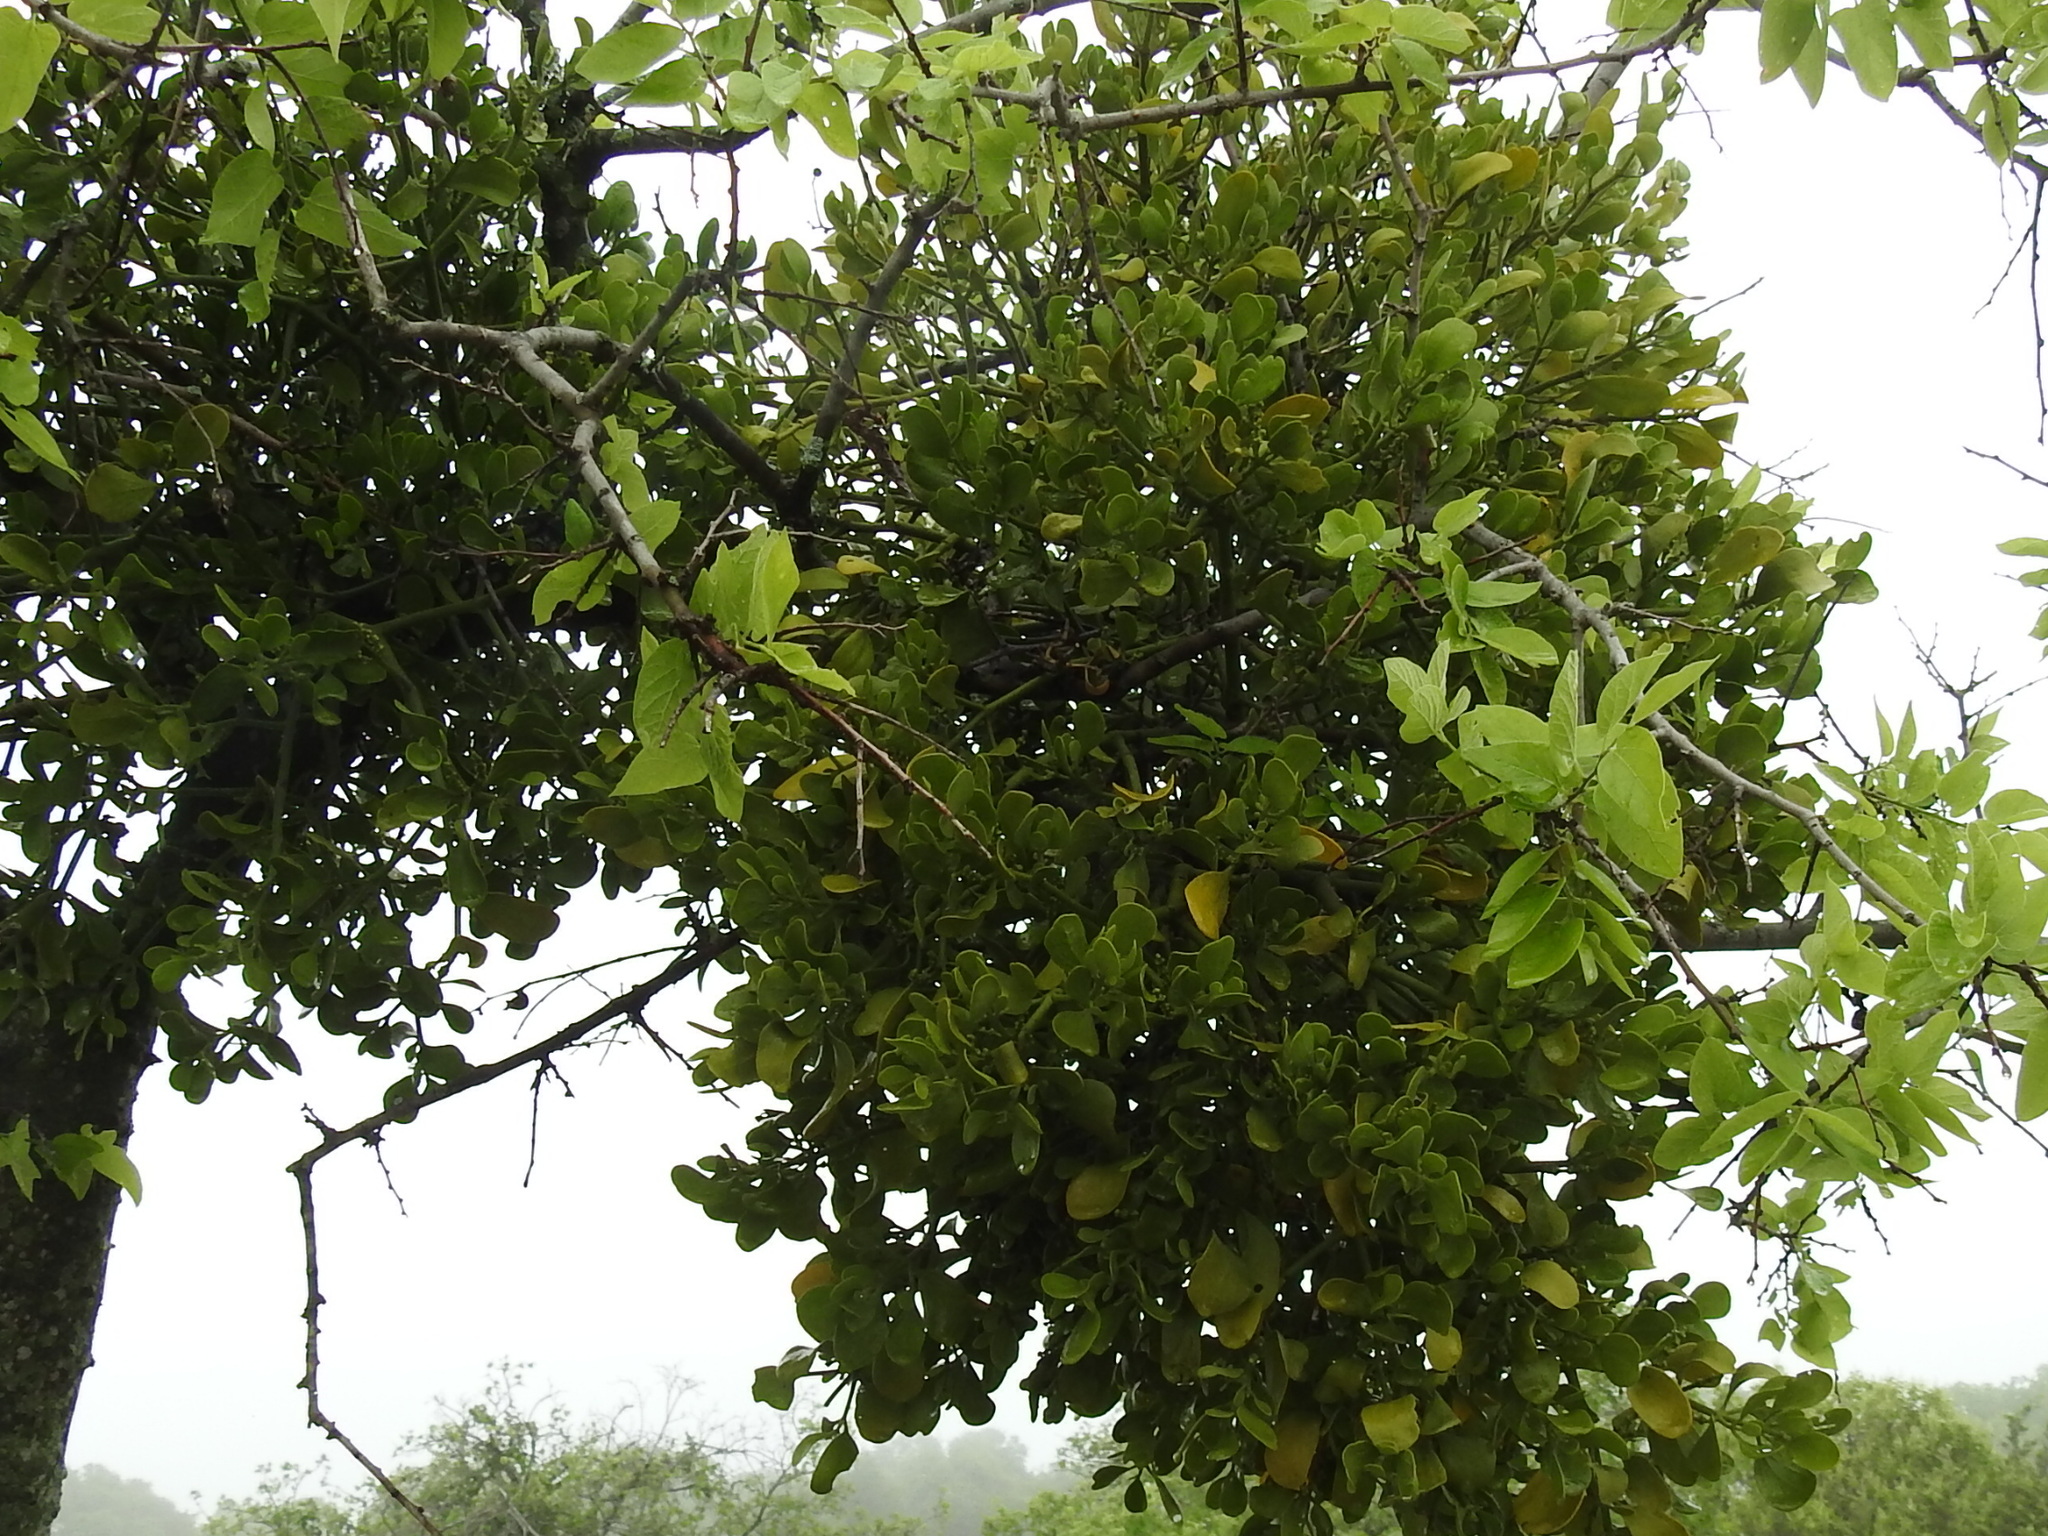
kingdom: Plantae
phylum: Tracheophyta
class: Magnoliopsida
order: Santalales
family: Viscaceae
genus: Phoradendron
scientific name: Phoradendron leucarpum
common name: Pacific mistletoe
